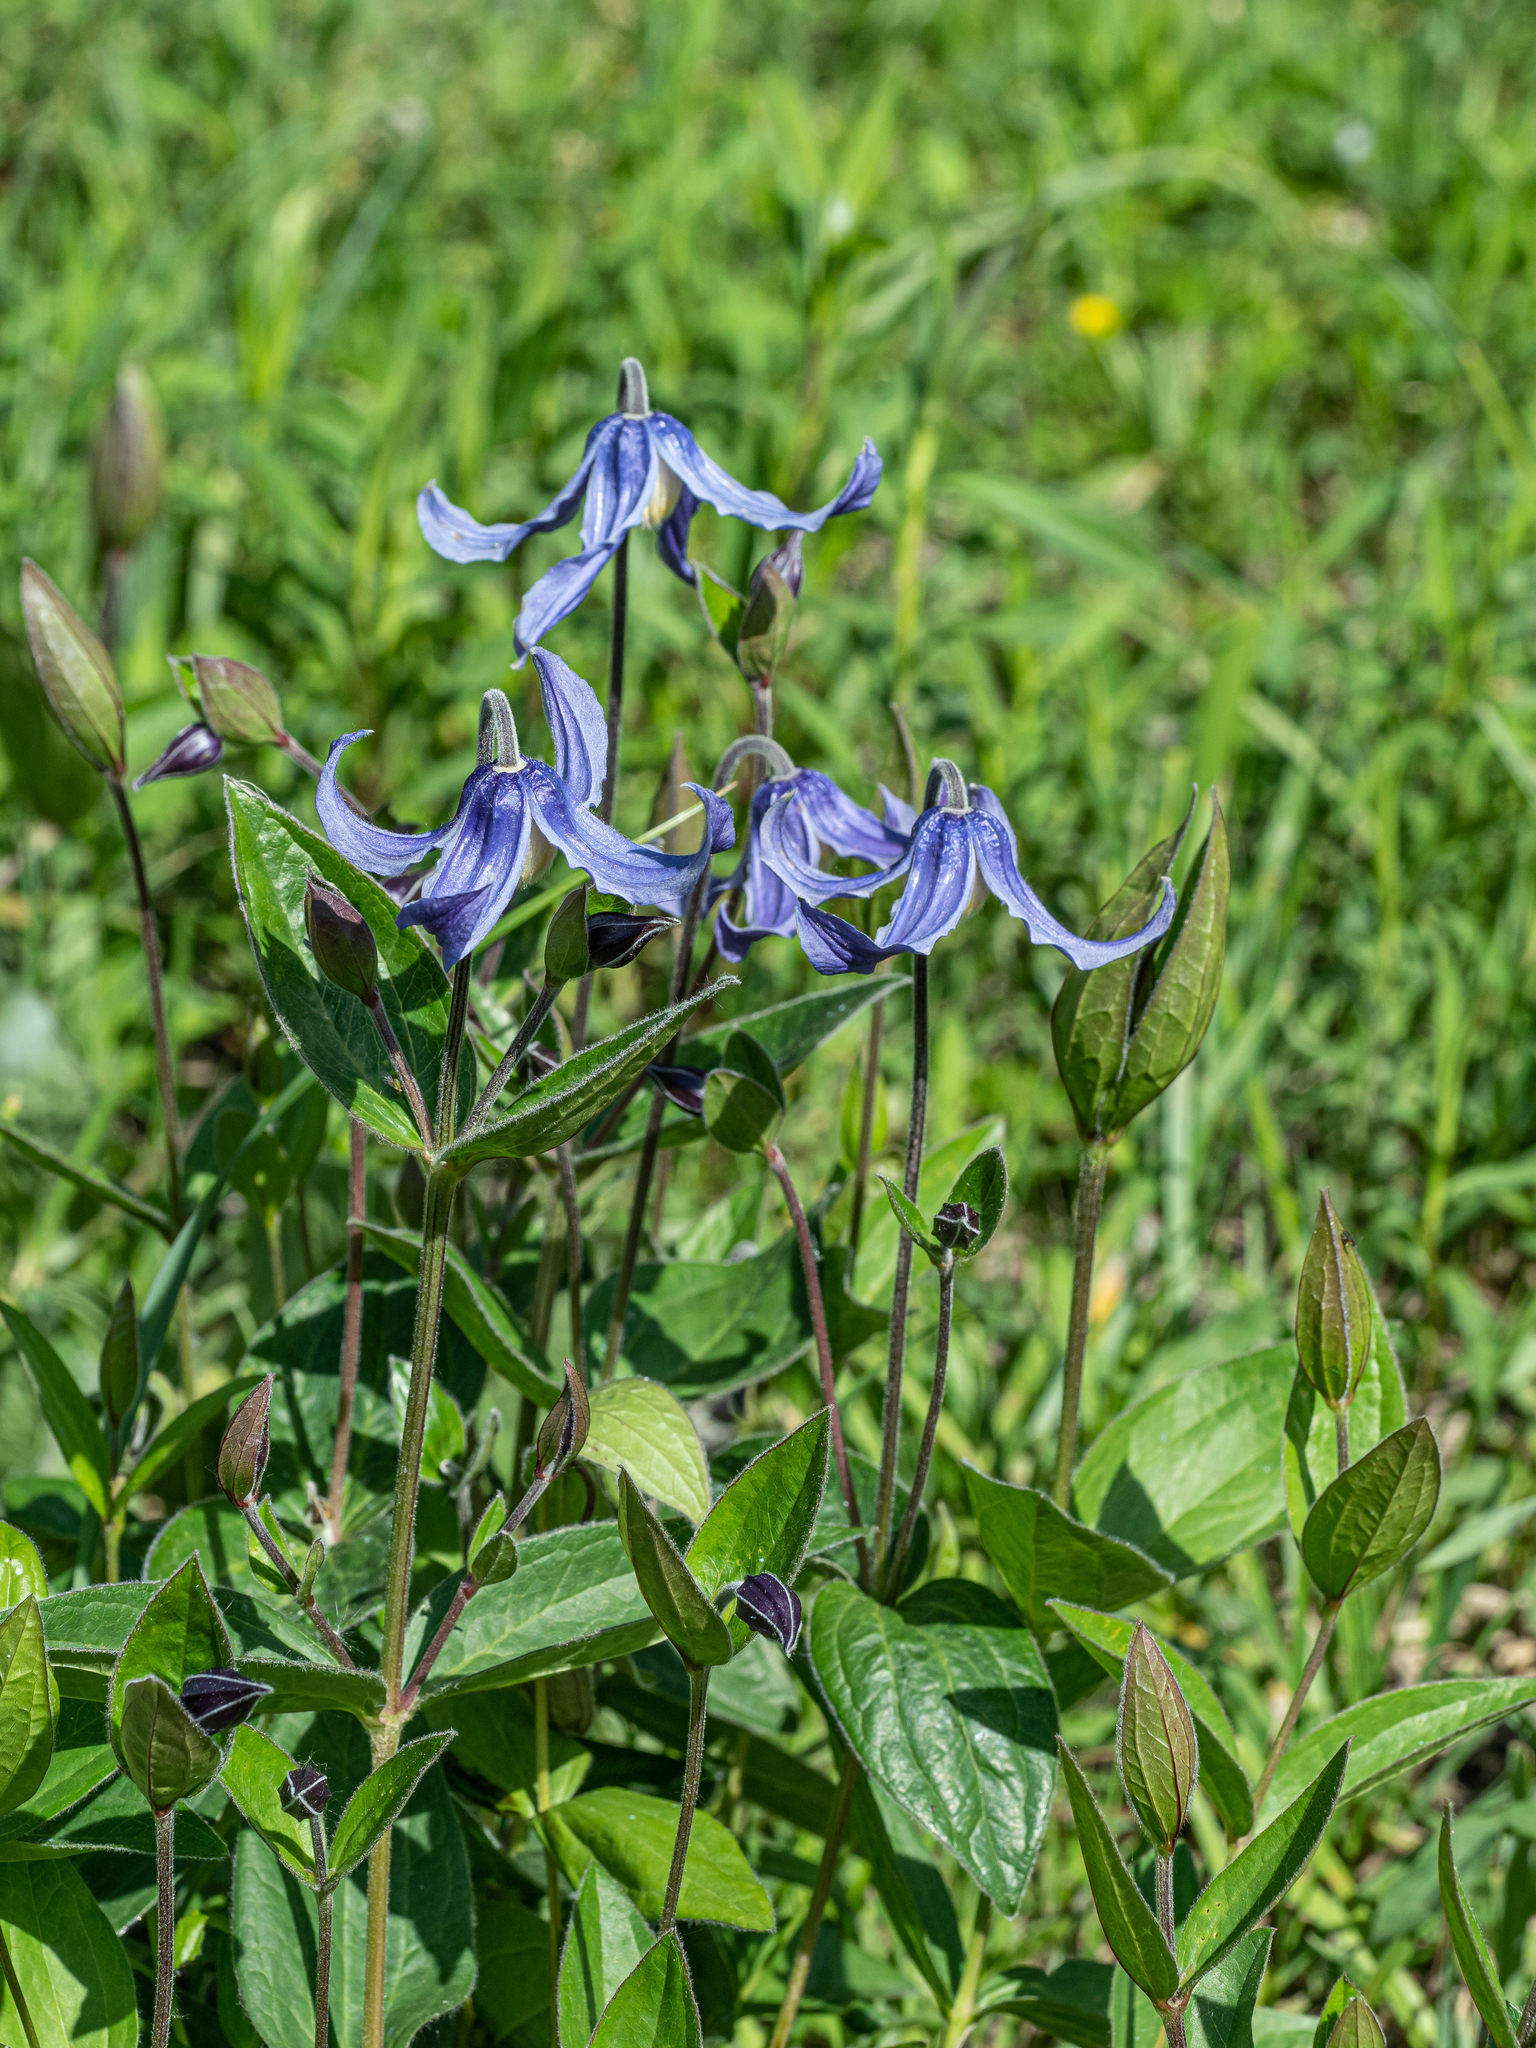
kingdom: Plantae
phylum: Tracheophyta
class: Magnoliopsida
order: Ranunculales
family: Ranunculaceae
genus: Clematis
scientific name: Clematis integrifolia
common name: Solitary clematis
